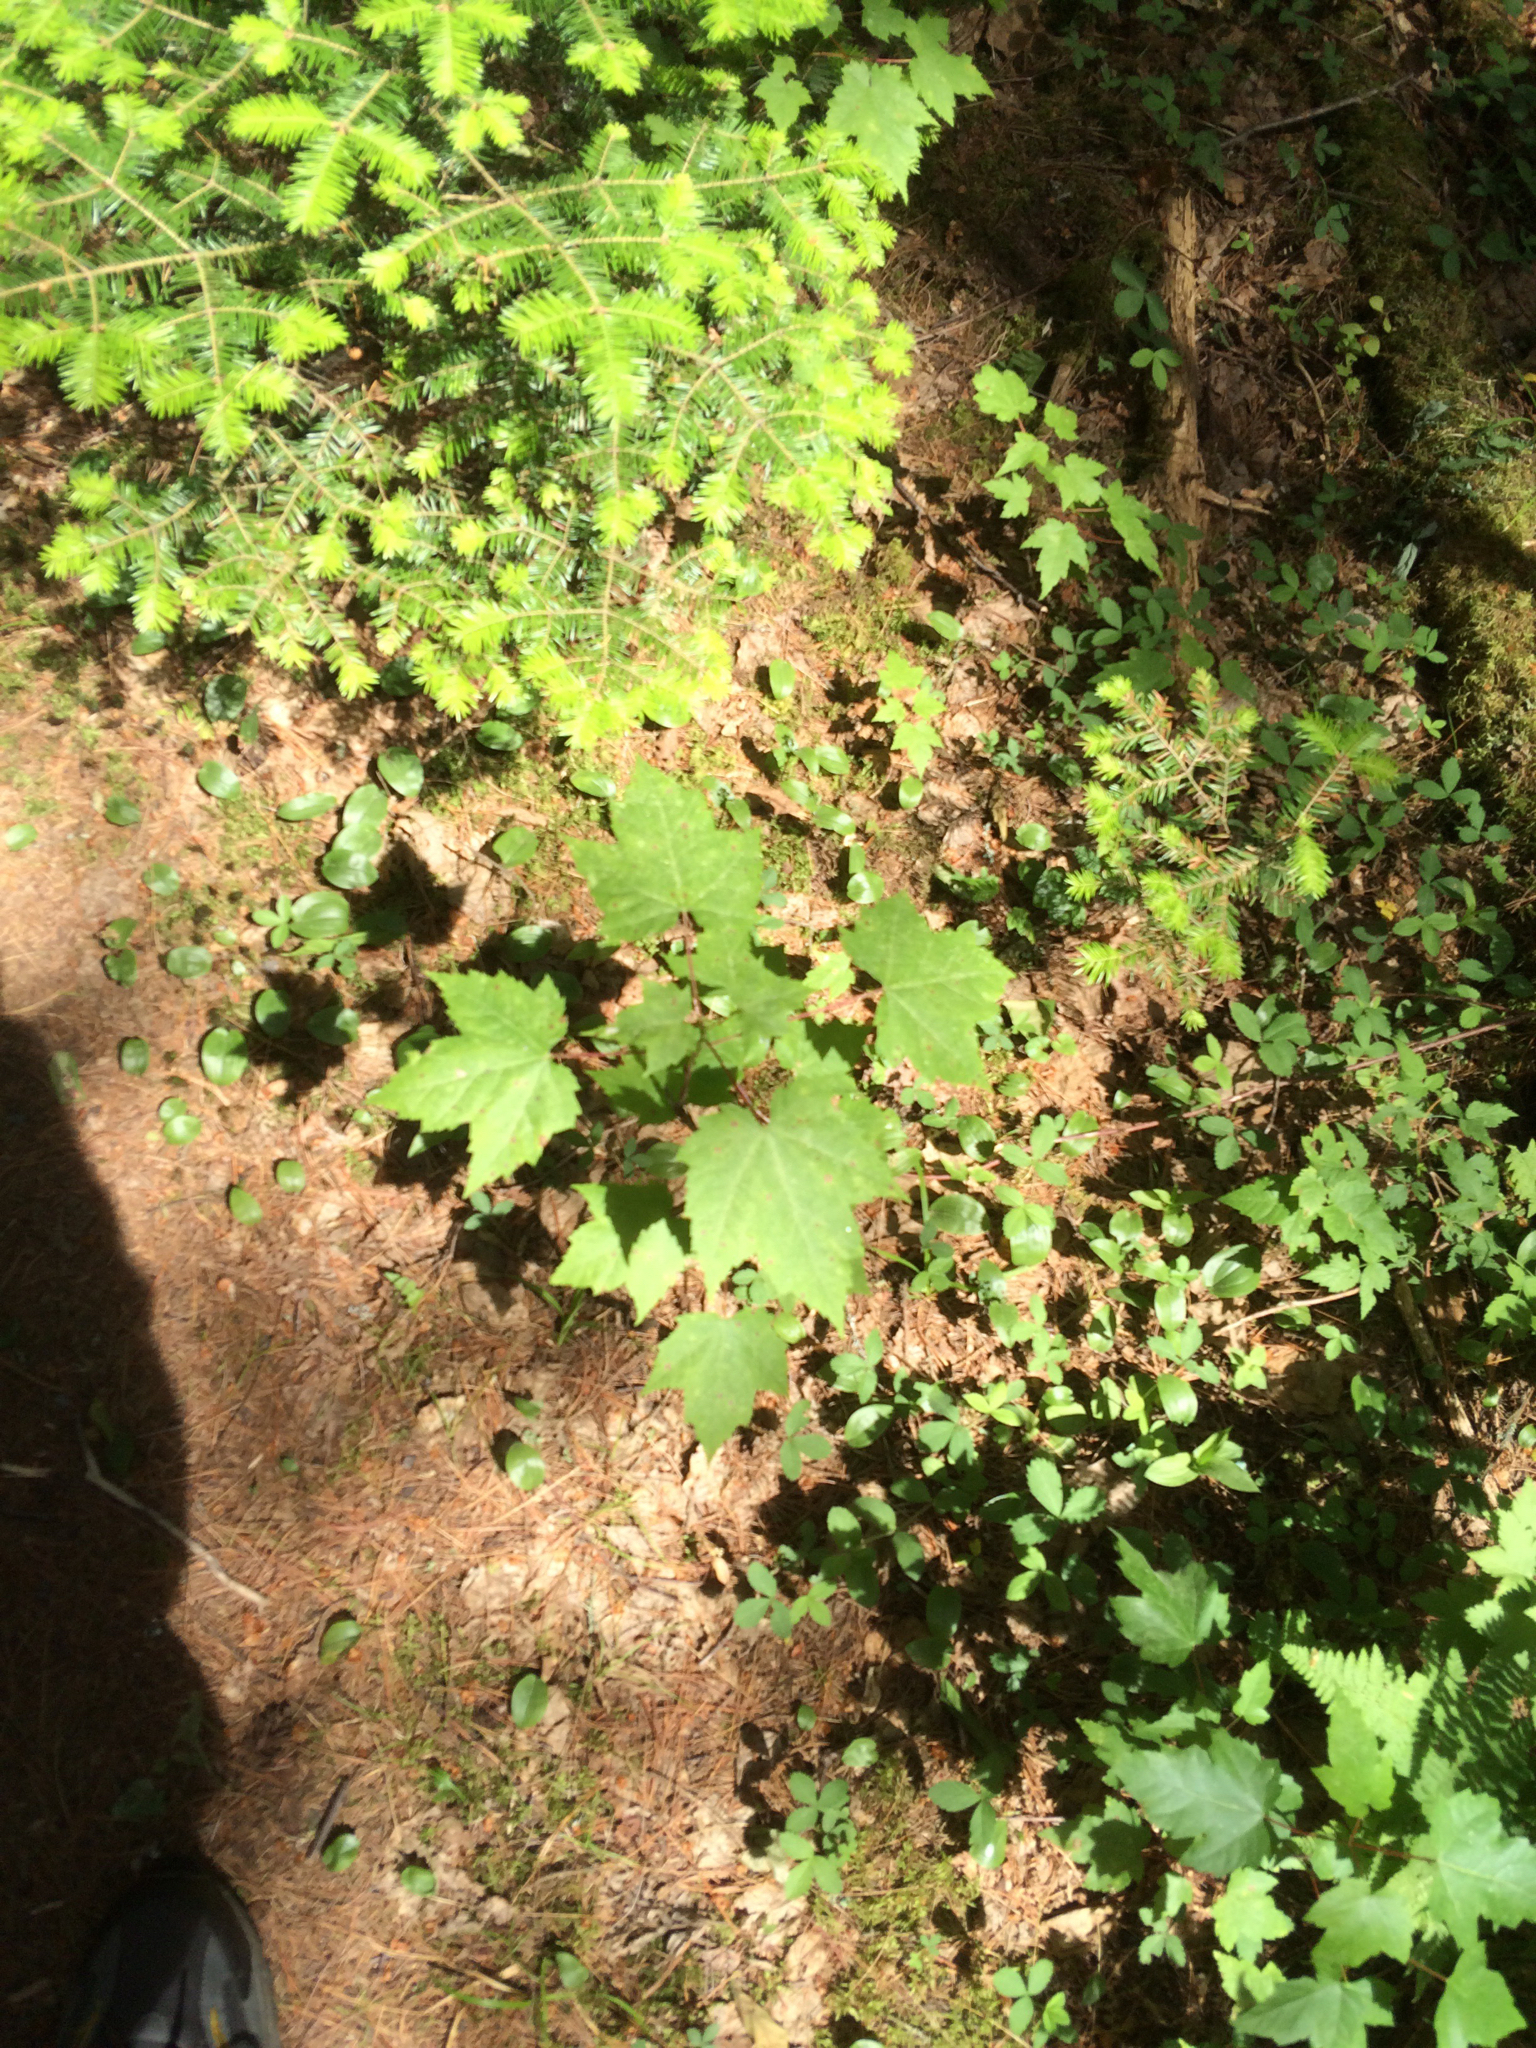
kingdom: Plantae
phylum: Tracheophyta
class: Magnoliopsida
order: Sapindales
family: Sapindaceae
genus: Acer
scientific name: Acer rubrum
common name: Red maple
